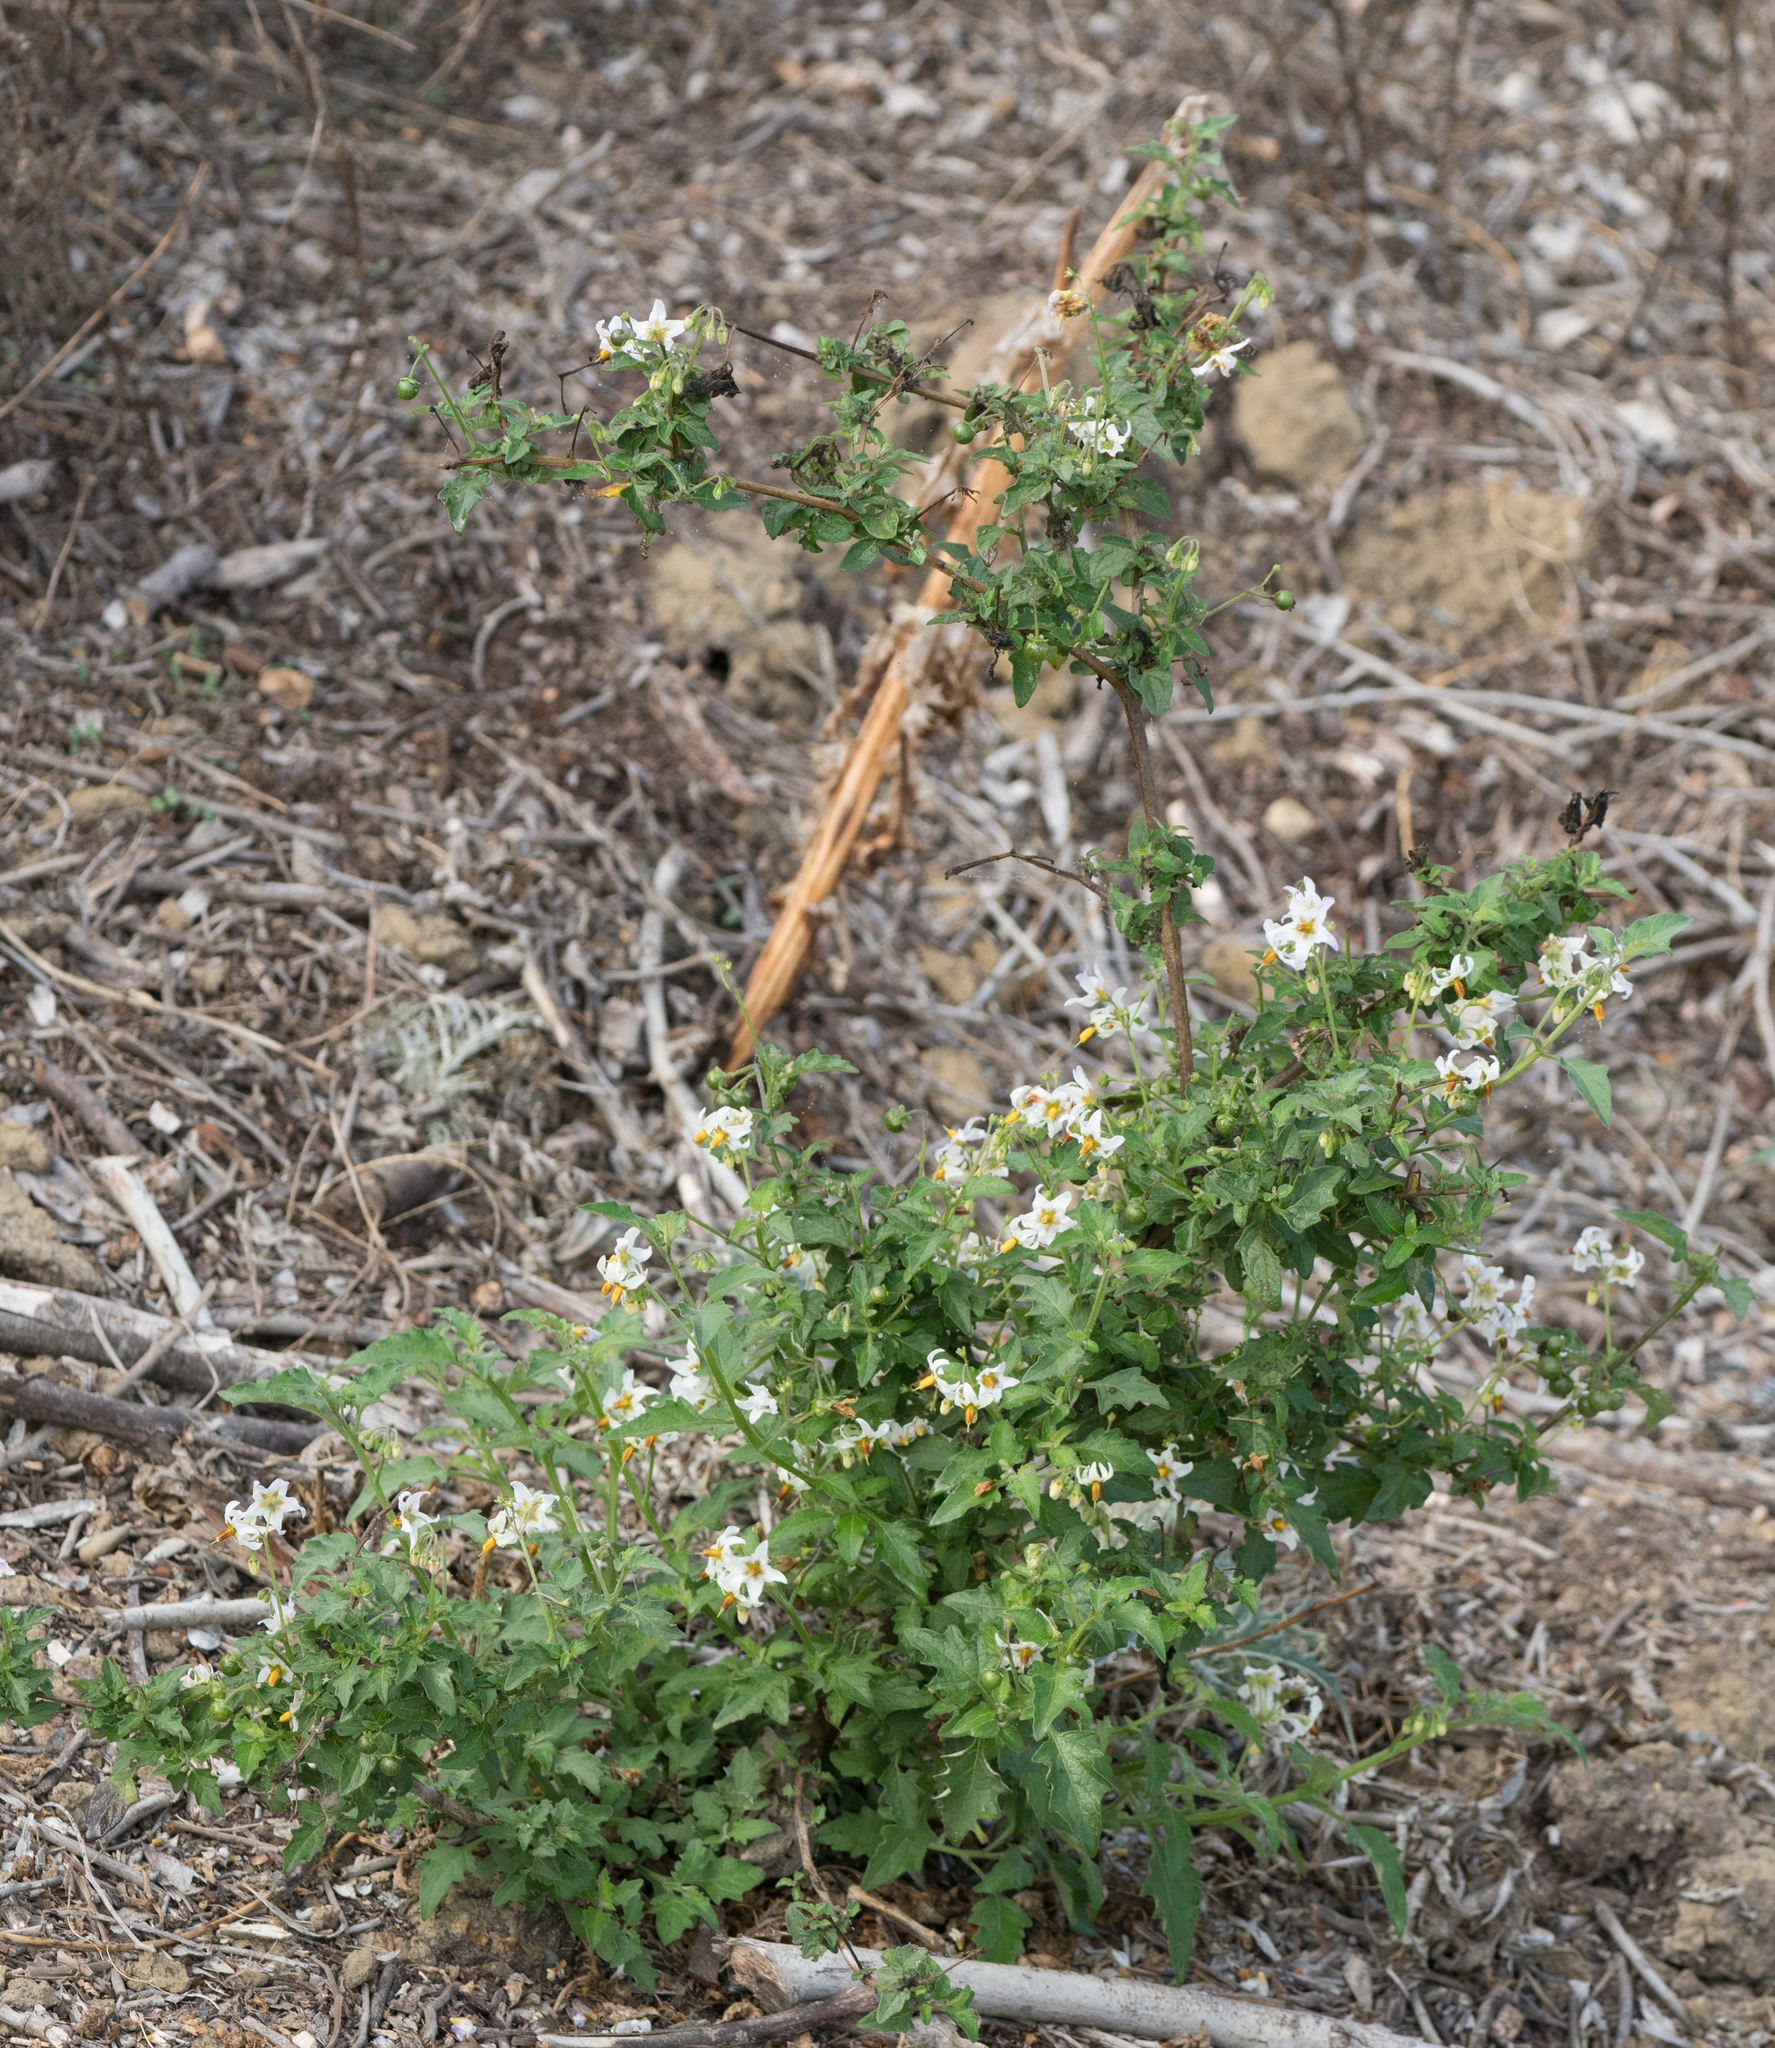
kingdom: Plantae
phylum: Tracheophyta
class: Magnoliopsida
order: Solanales
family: Solanaceae
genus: Solanum
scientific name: Solanum douglasii
